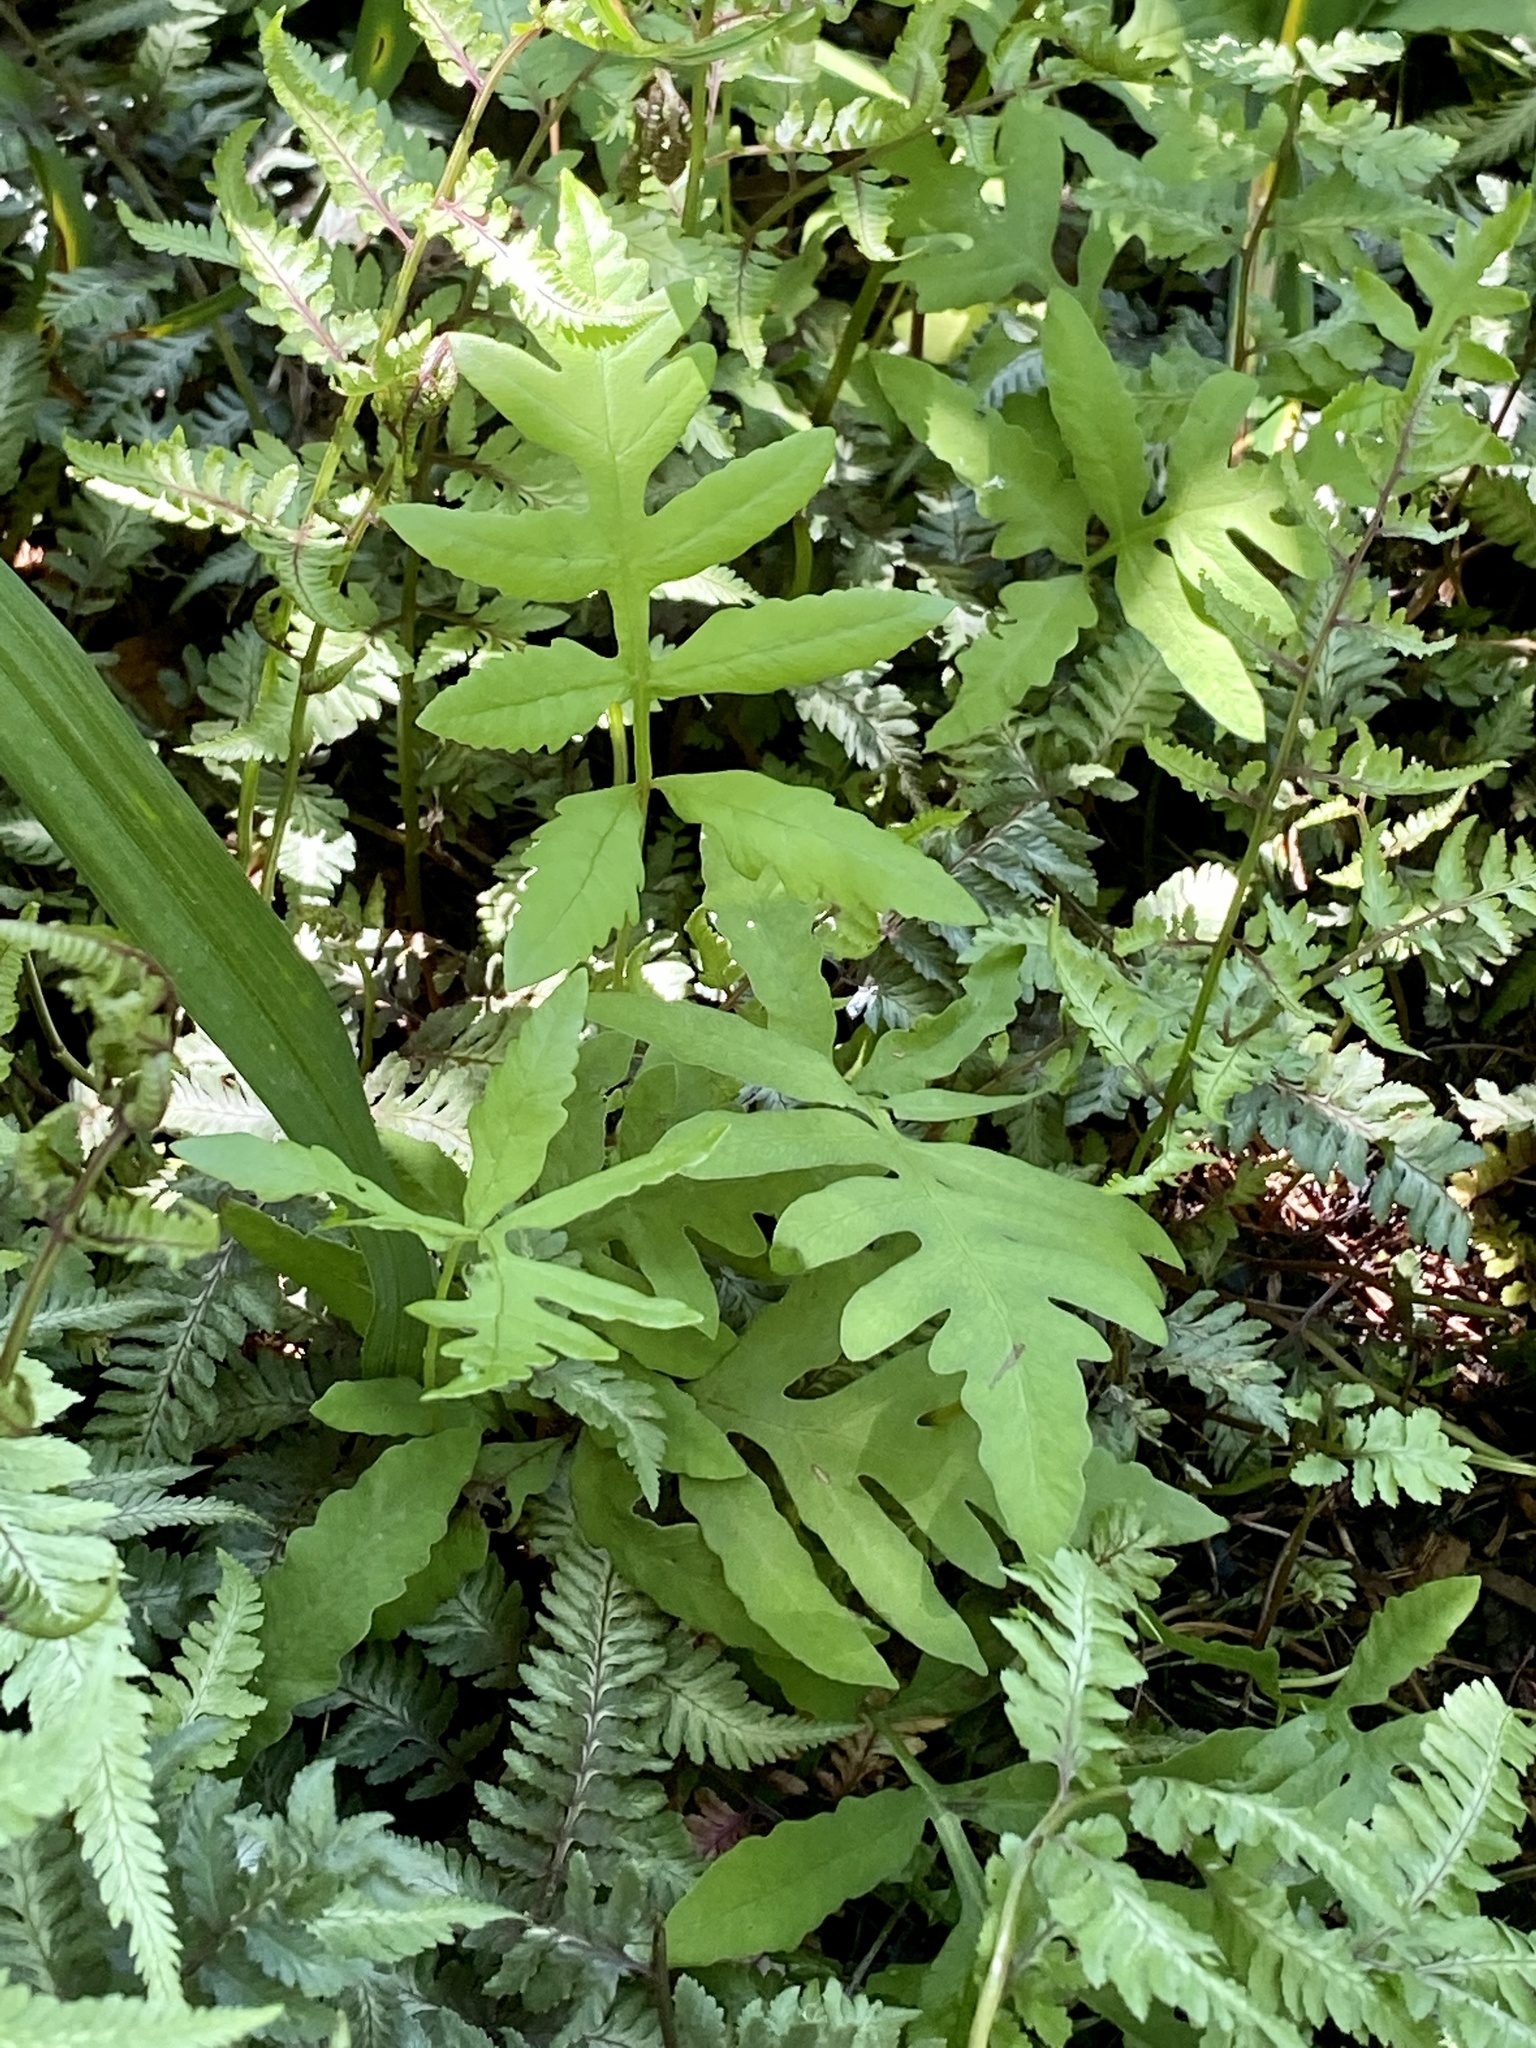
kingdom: Plantae
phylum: Tracheophyta
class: Polypodiopsida
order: Polypodiales
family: Onocleaceae
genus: Onoclea
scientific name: Onoclea sensibilis
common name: Sensitive fern
